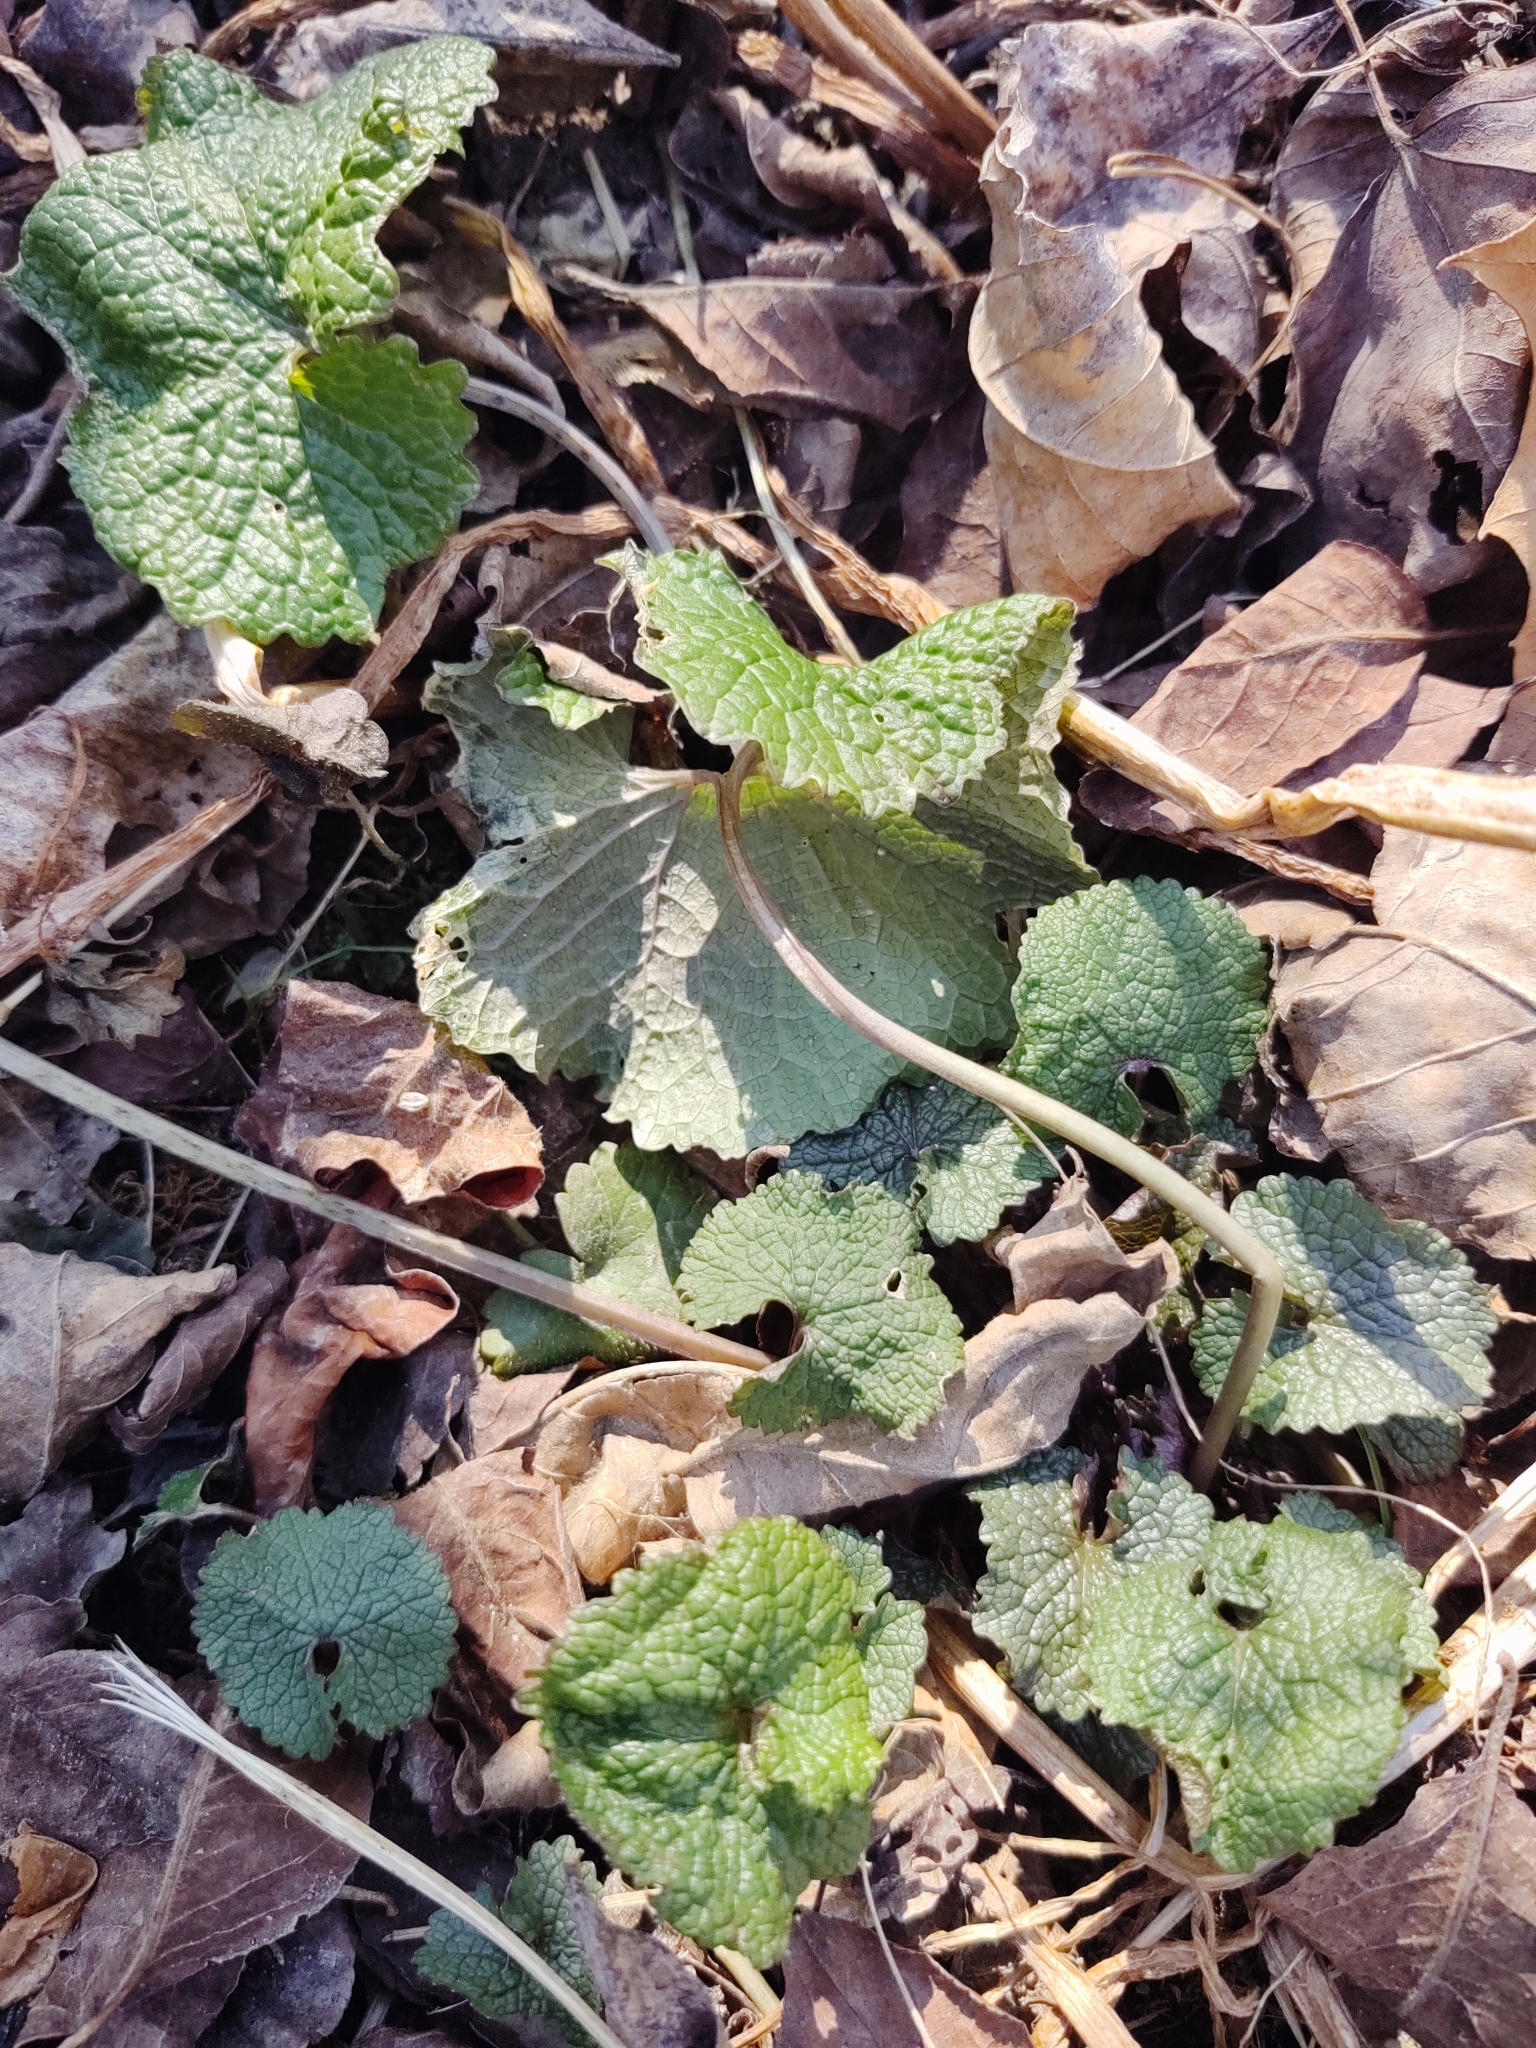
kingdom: Plantae
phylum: Tracheophyta
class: Magnoliopsida
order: Brassicales
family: Brassicaceae
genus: Alliaria
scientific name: Alliaria petiolata
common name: Garlic mustard
